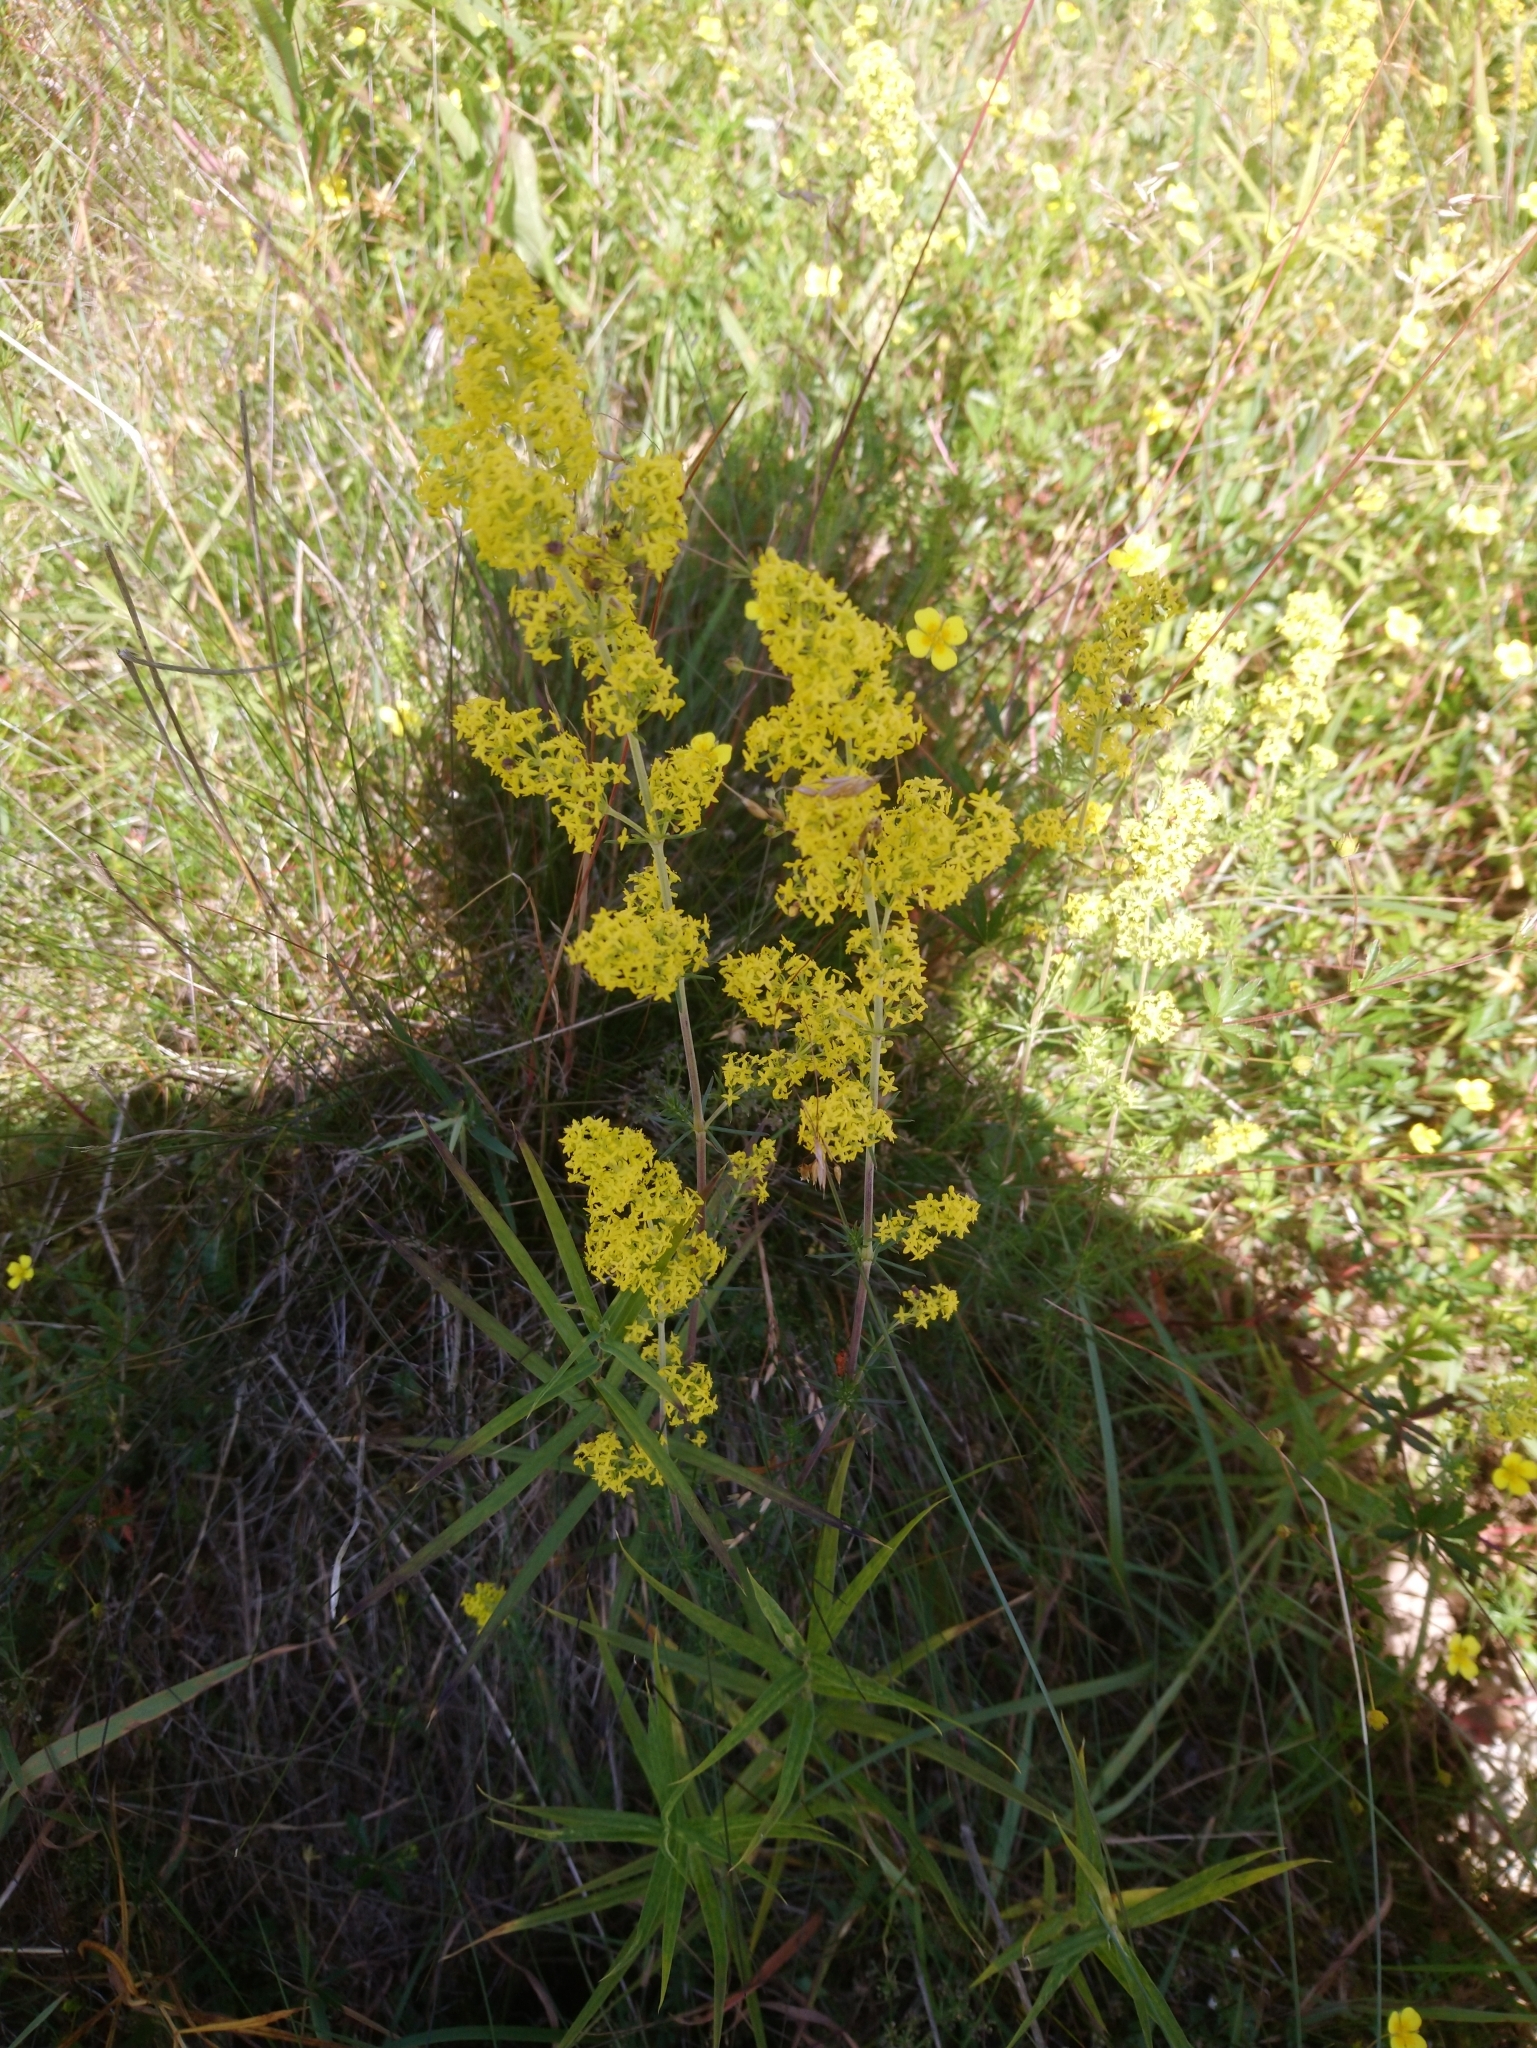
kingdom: Plantae
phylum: Tracheophyta
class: Magnoliopsida
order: Gentianales
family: Rubiaceae
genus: Galium
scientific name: Galium verum
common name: Lady's bedstraw
